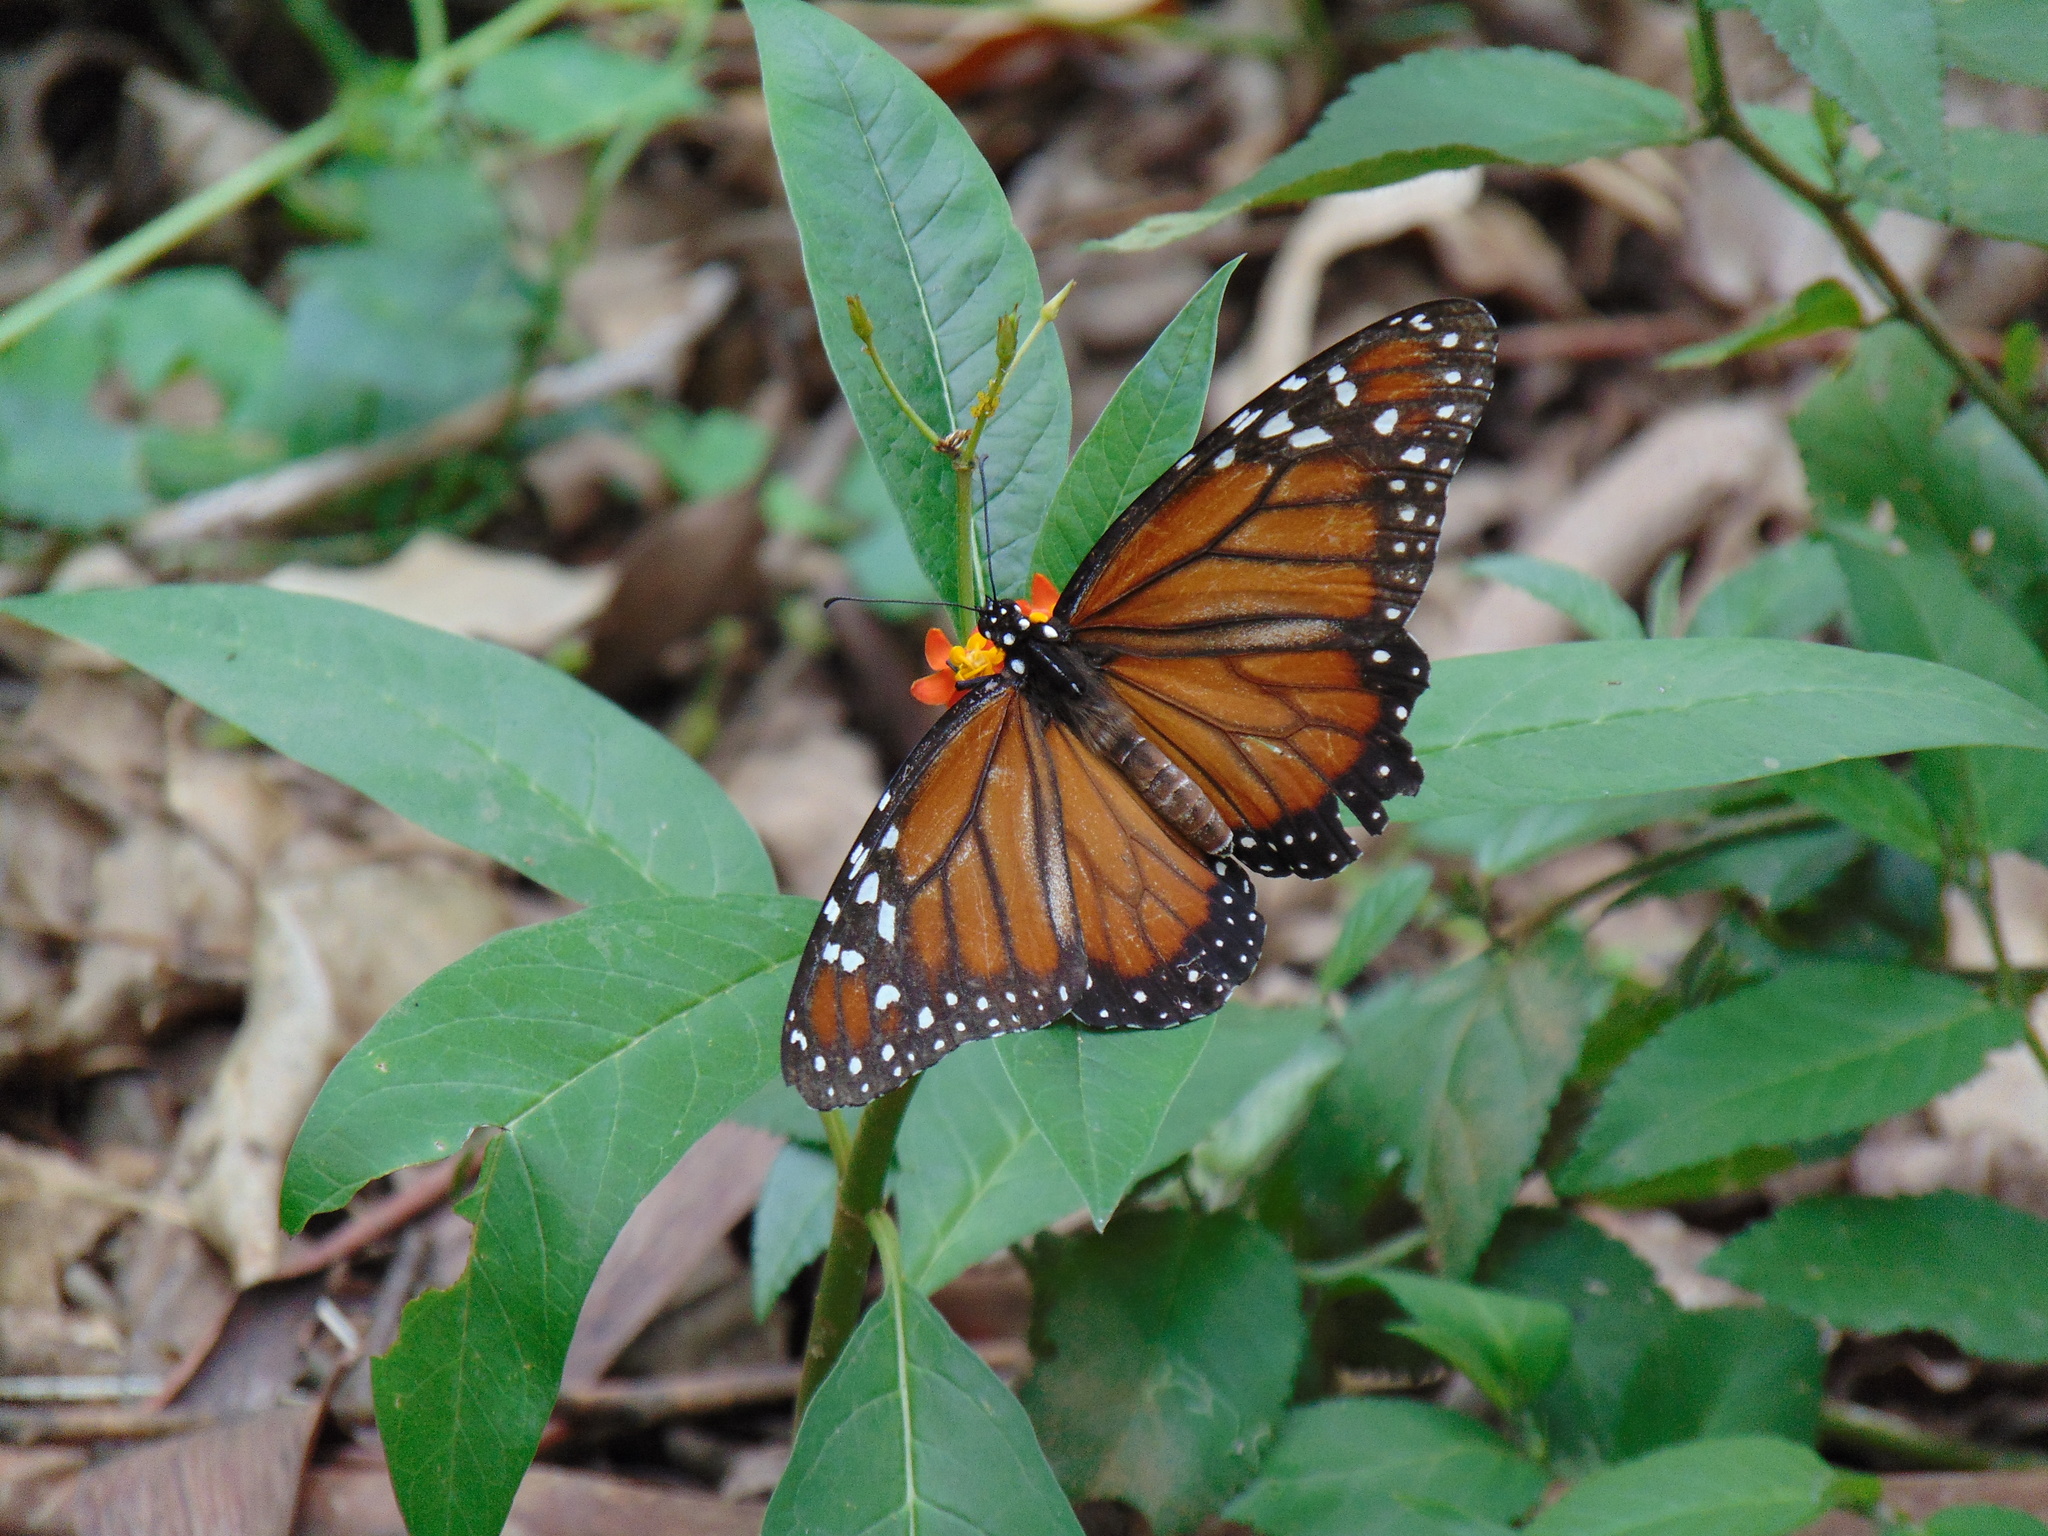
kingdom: Animalia
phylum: Arthropoda
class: Insecta
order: Lepidoptera
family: Nymphalidae
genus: Danaus
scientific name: Danaus erippus
